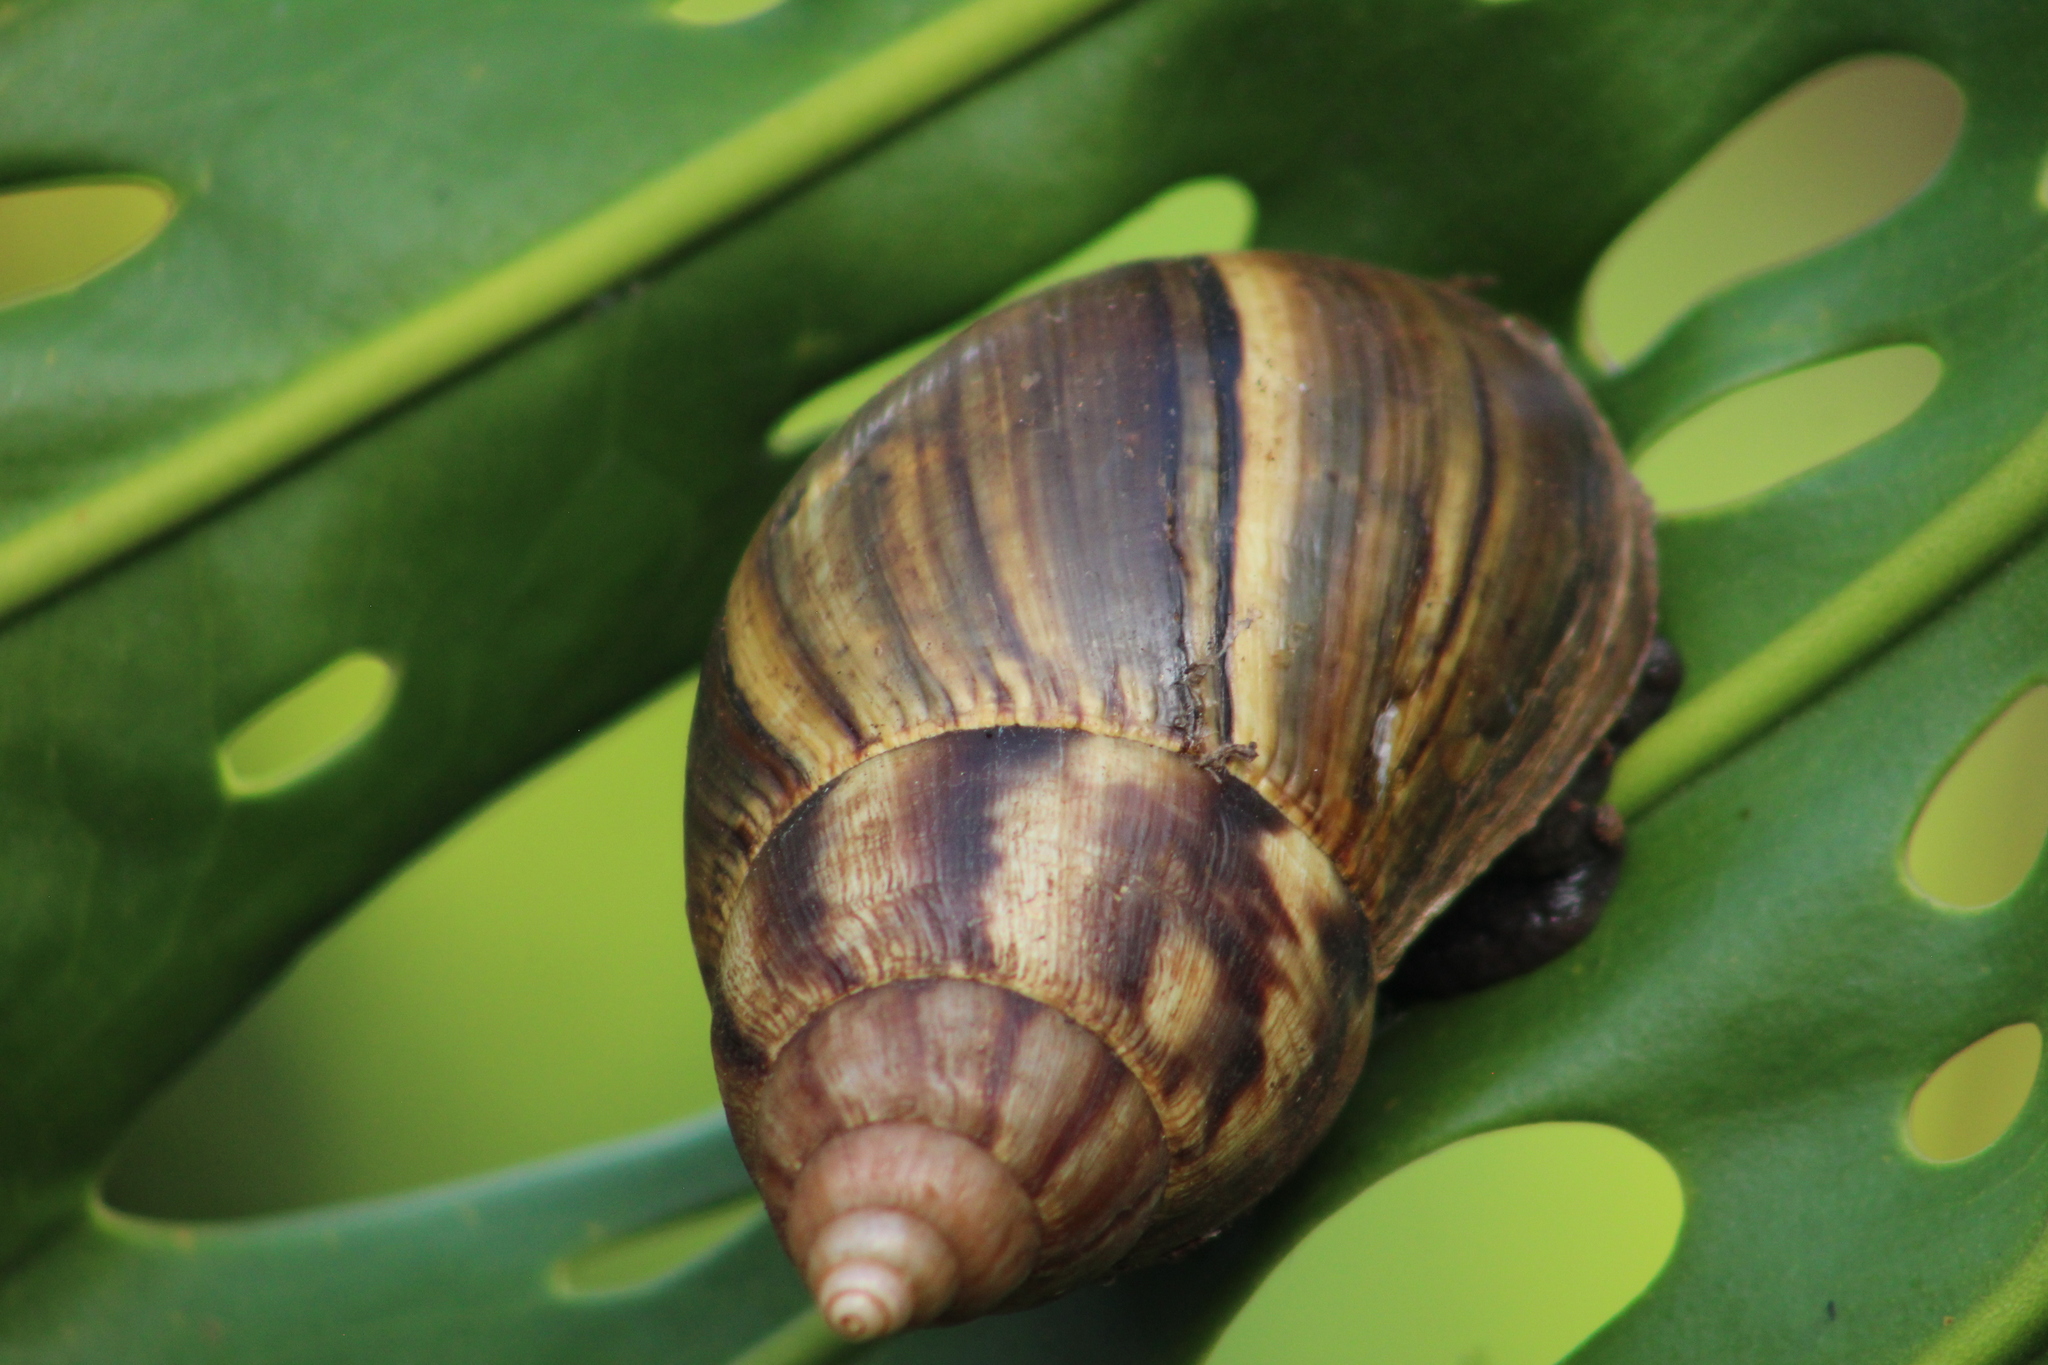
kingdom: Animalia
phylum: Mollusca
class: Gastropoda
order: Stylommatophora
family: Achatinidae
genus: Lissachatina
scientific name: Lissachatina fulica
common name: Giant african snail
